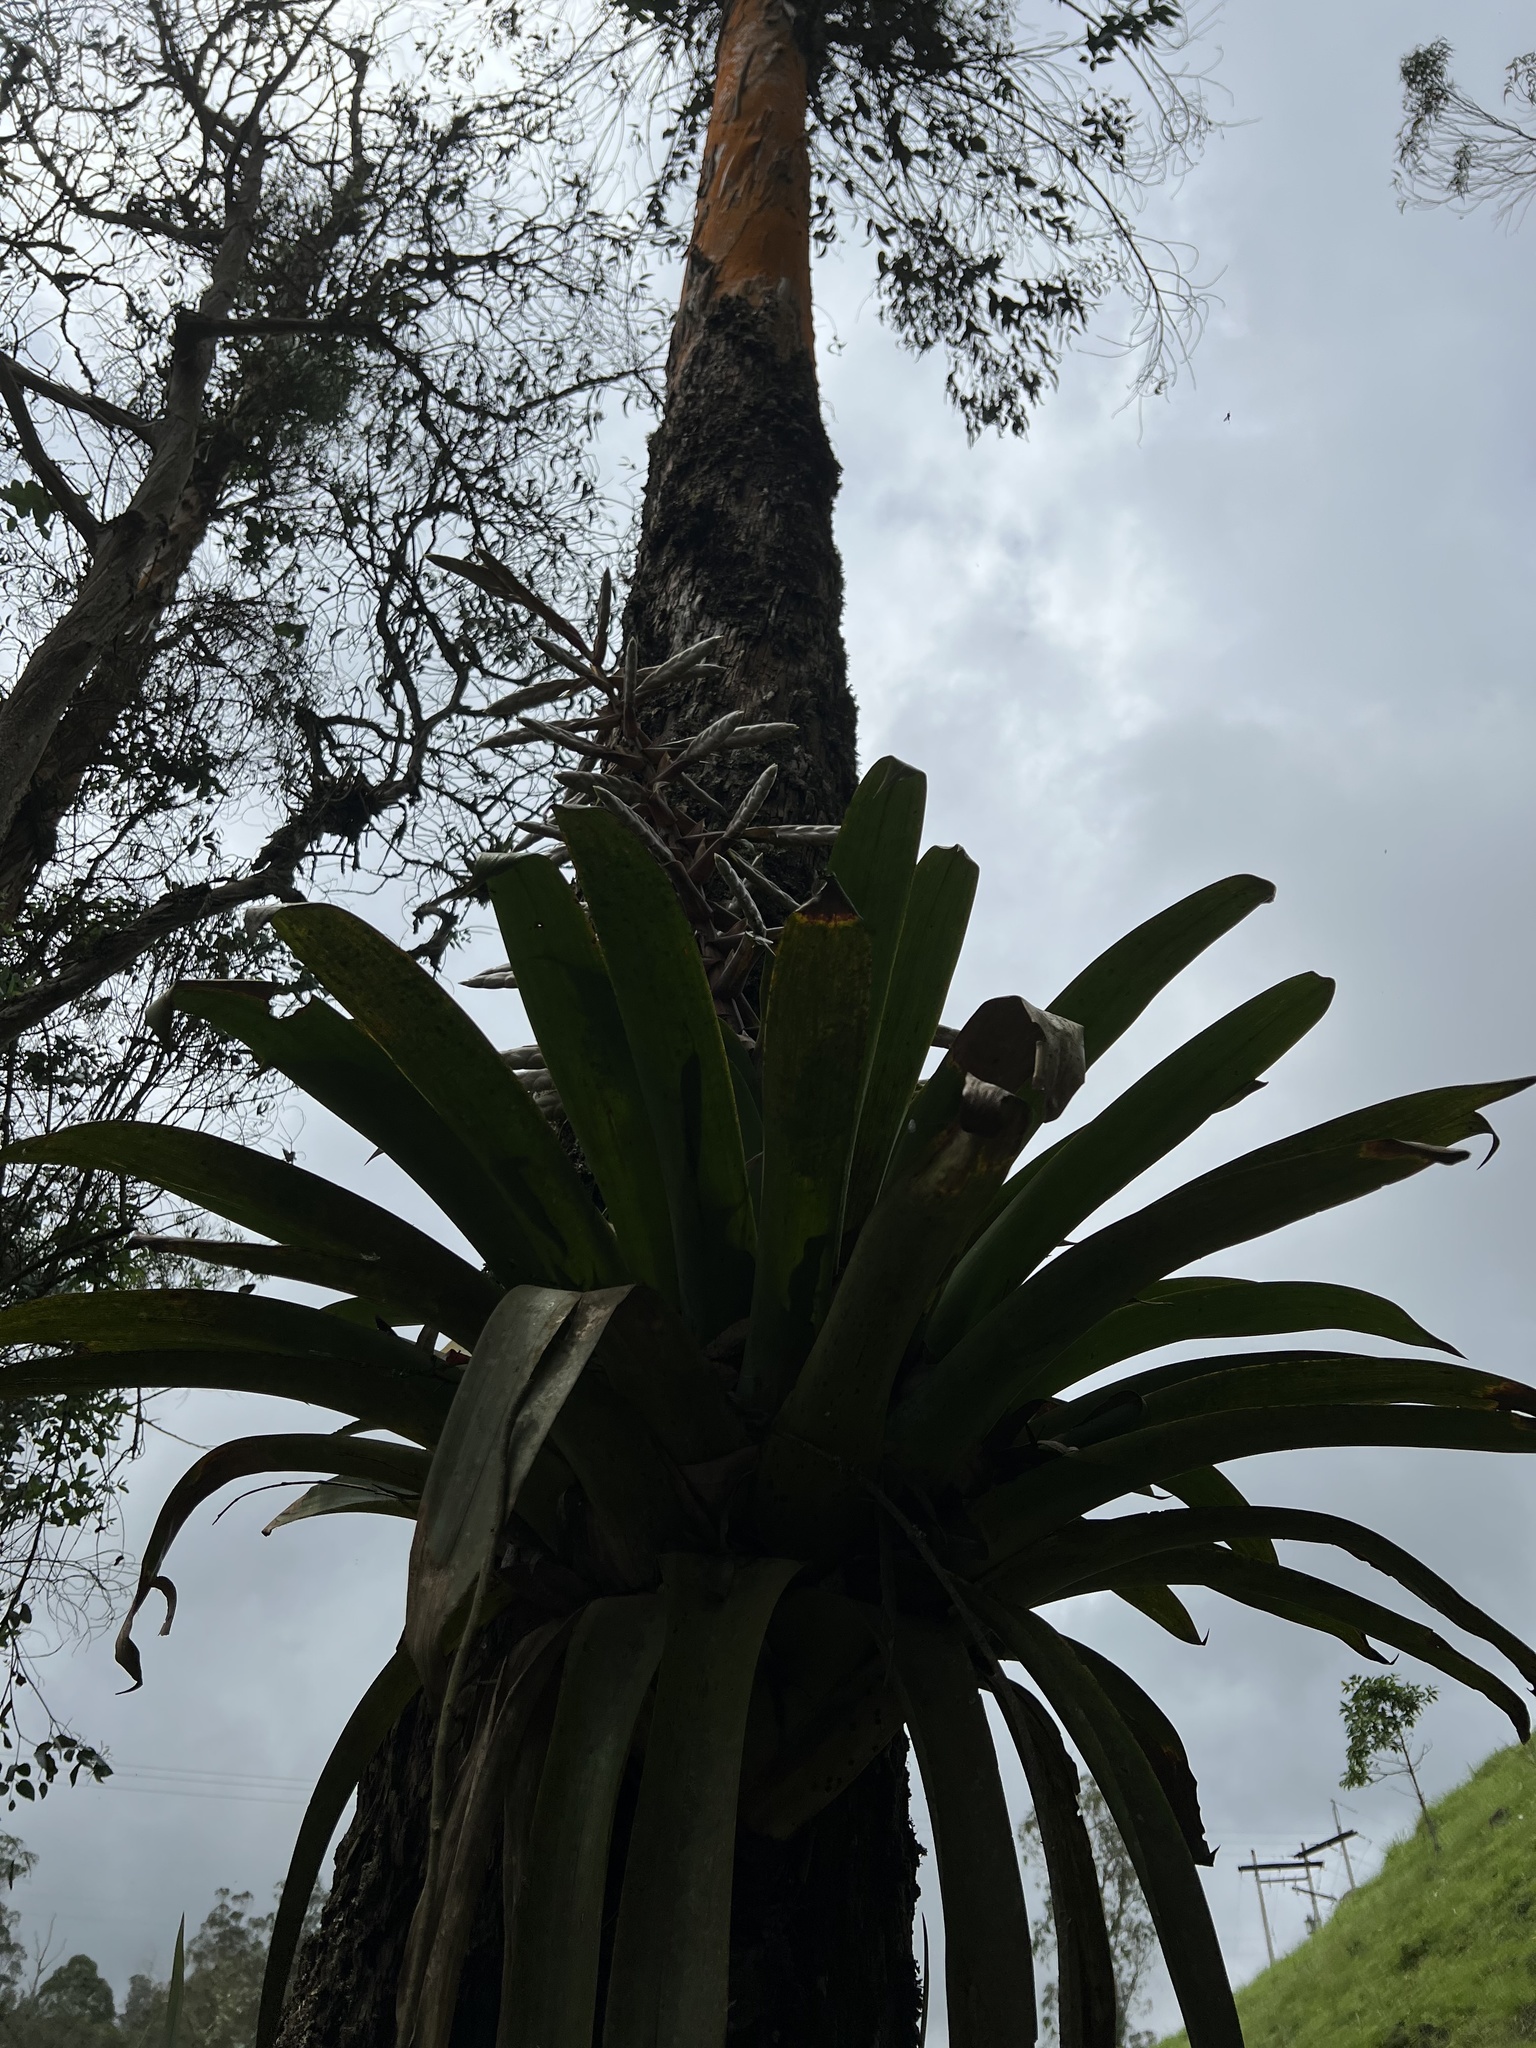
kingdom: Plantae
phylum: Tracheophyta
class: Liliopsida
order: Poales
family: Bromeliaceae
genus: Tillandsia
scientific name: Tillandsia fendleri
